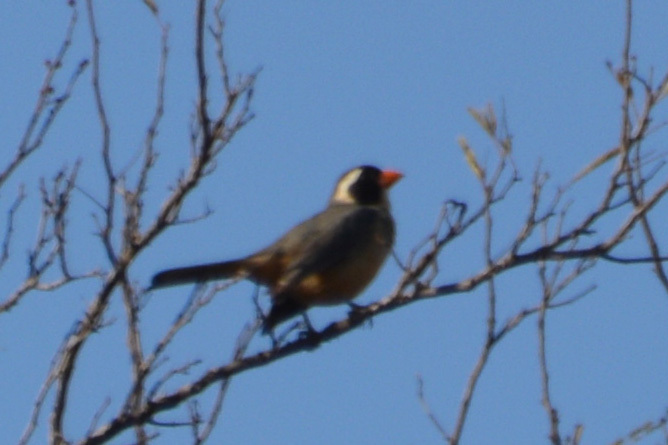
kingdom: Animalia
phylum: Chordata
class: Aves
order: Passeriformes
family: Thraupidae
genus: Saltator
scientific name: Saltator aurantiirostris
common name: Golden-billed saltator
